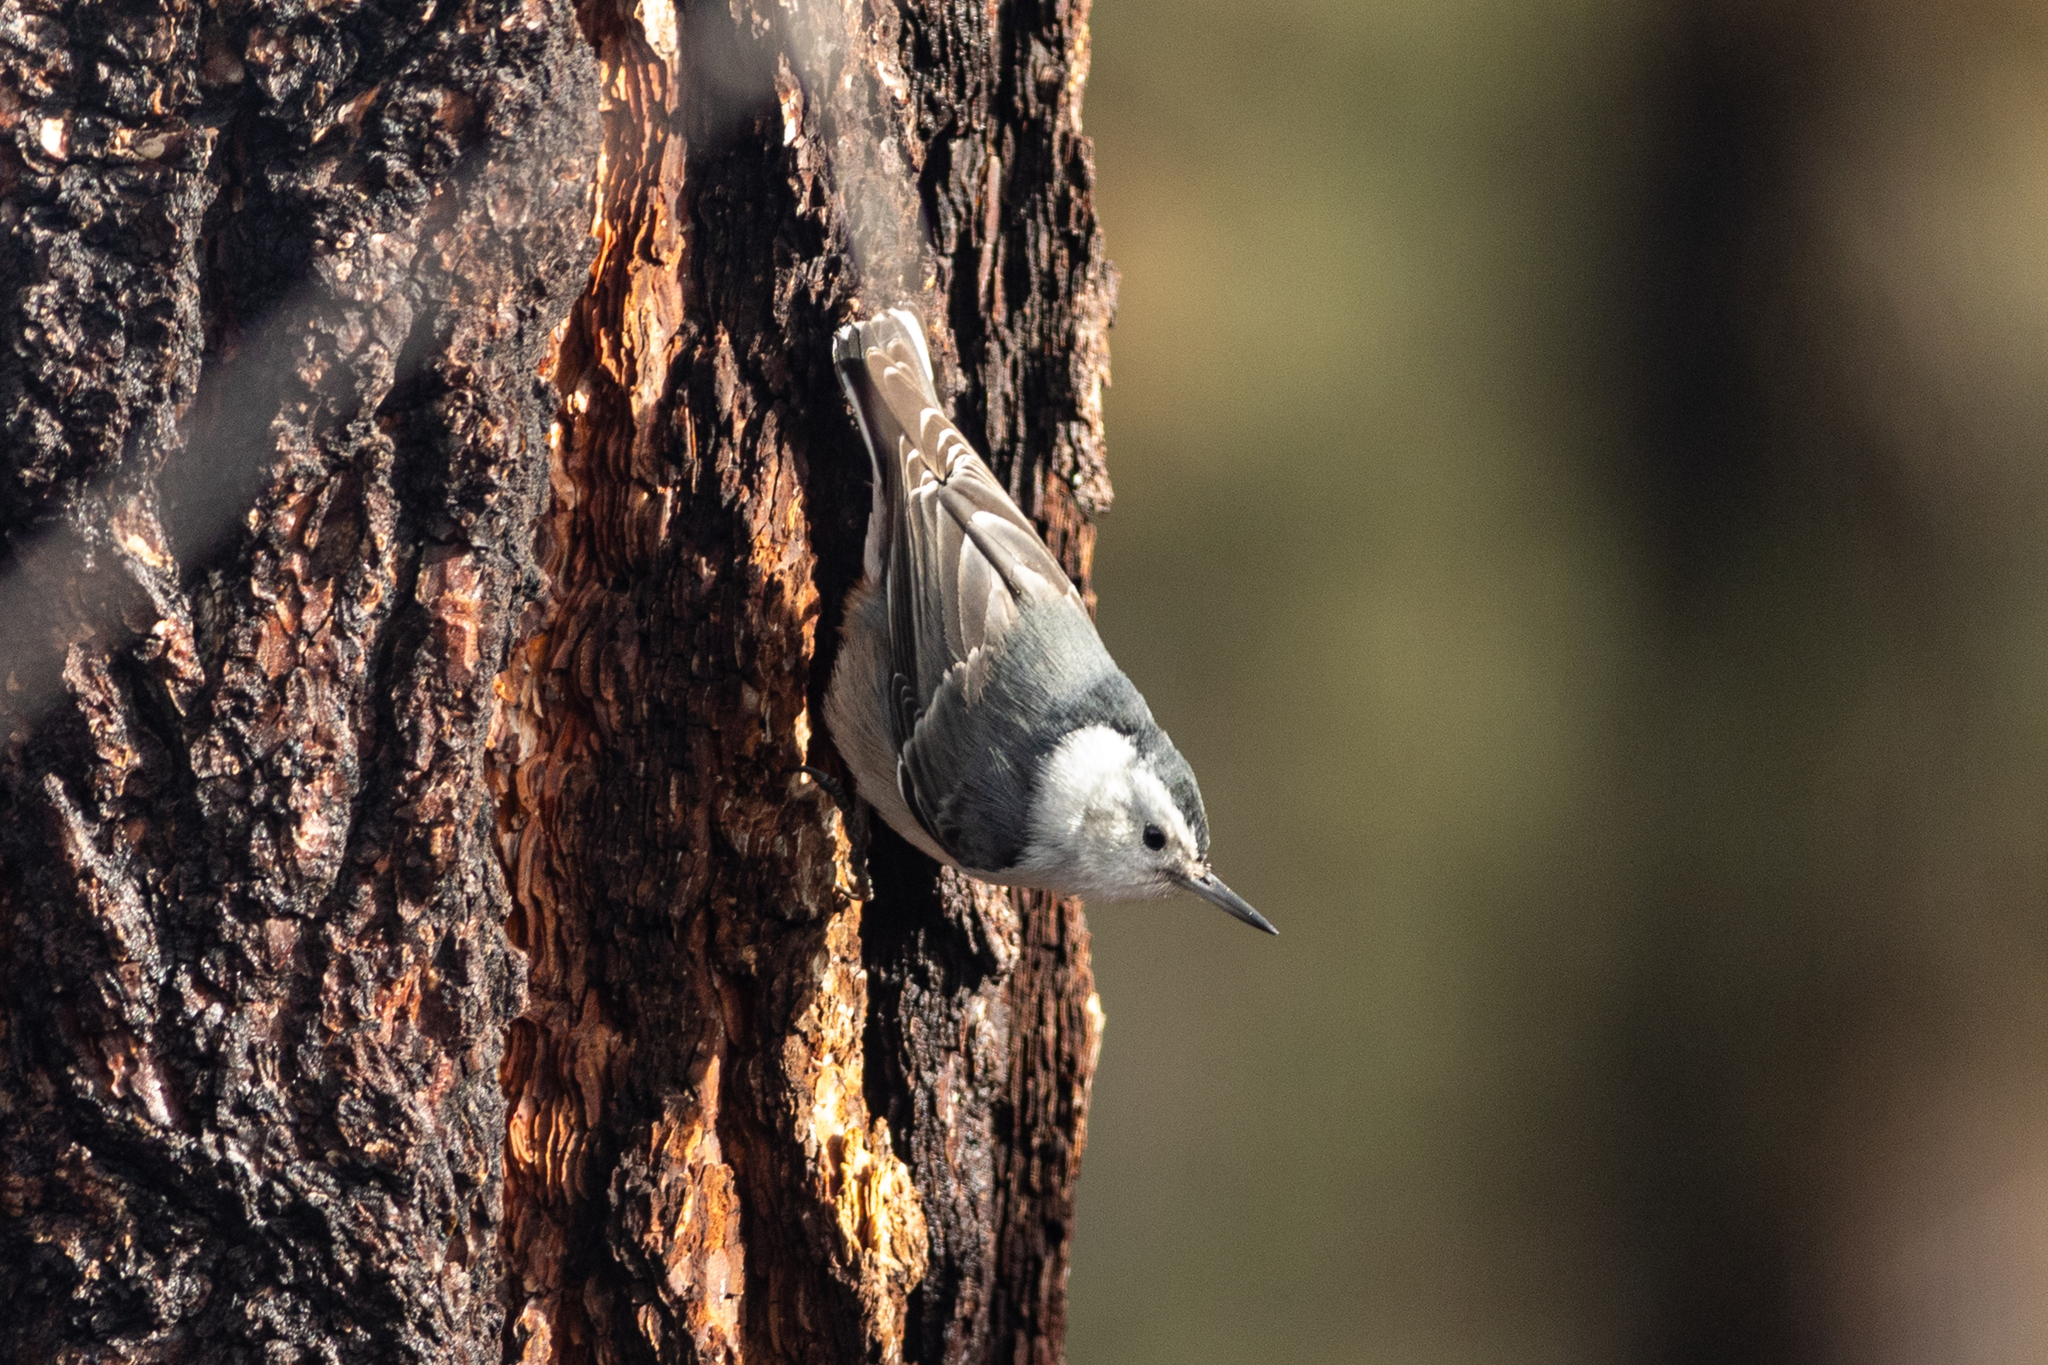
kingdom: Animalia
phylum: Chordata
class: Aves
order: Passeriformes
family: Sittidae
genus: Sitta
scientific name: Sitta carolinensis
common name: White-breasted nuthatch
